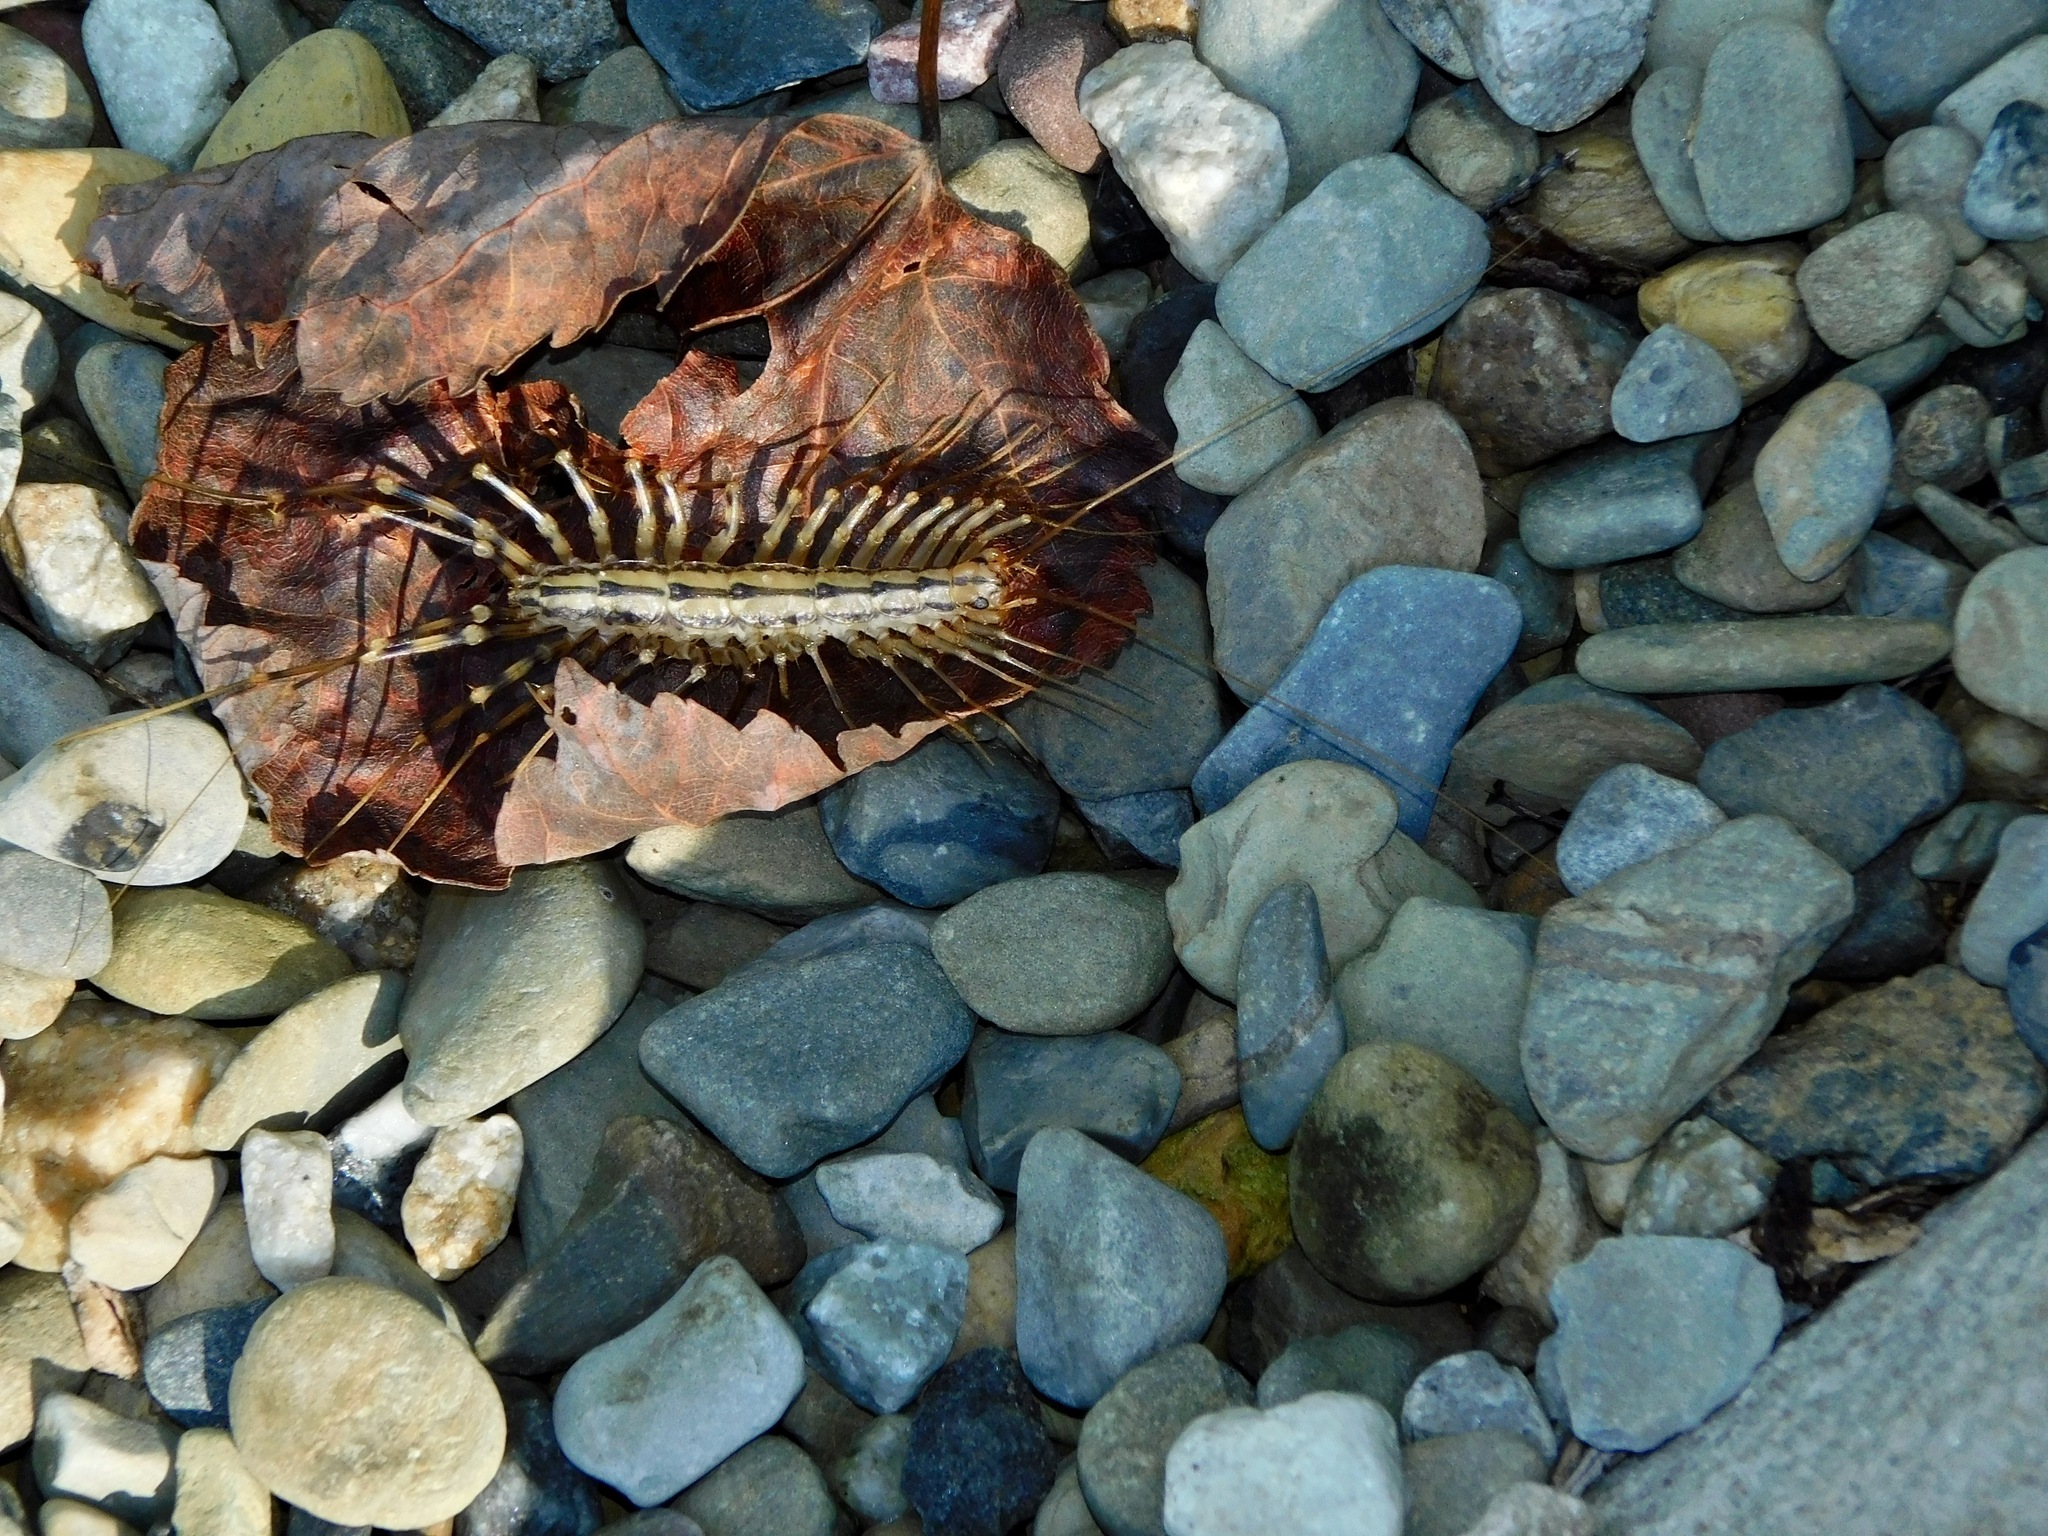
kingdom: Animalia
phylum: Arthropoda
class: Chilopoda
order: Scutigeromorpha
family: Scutigeridae
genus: Scutigera
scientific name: Scutigera coleoptrata
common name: House centipede
